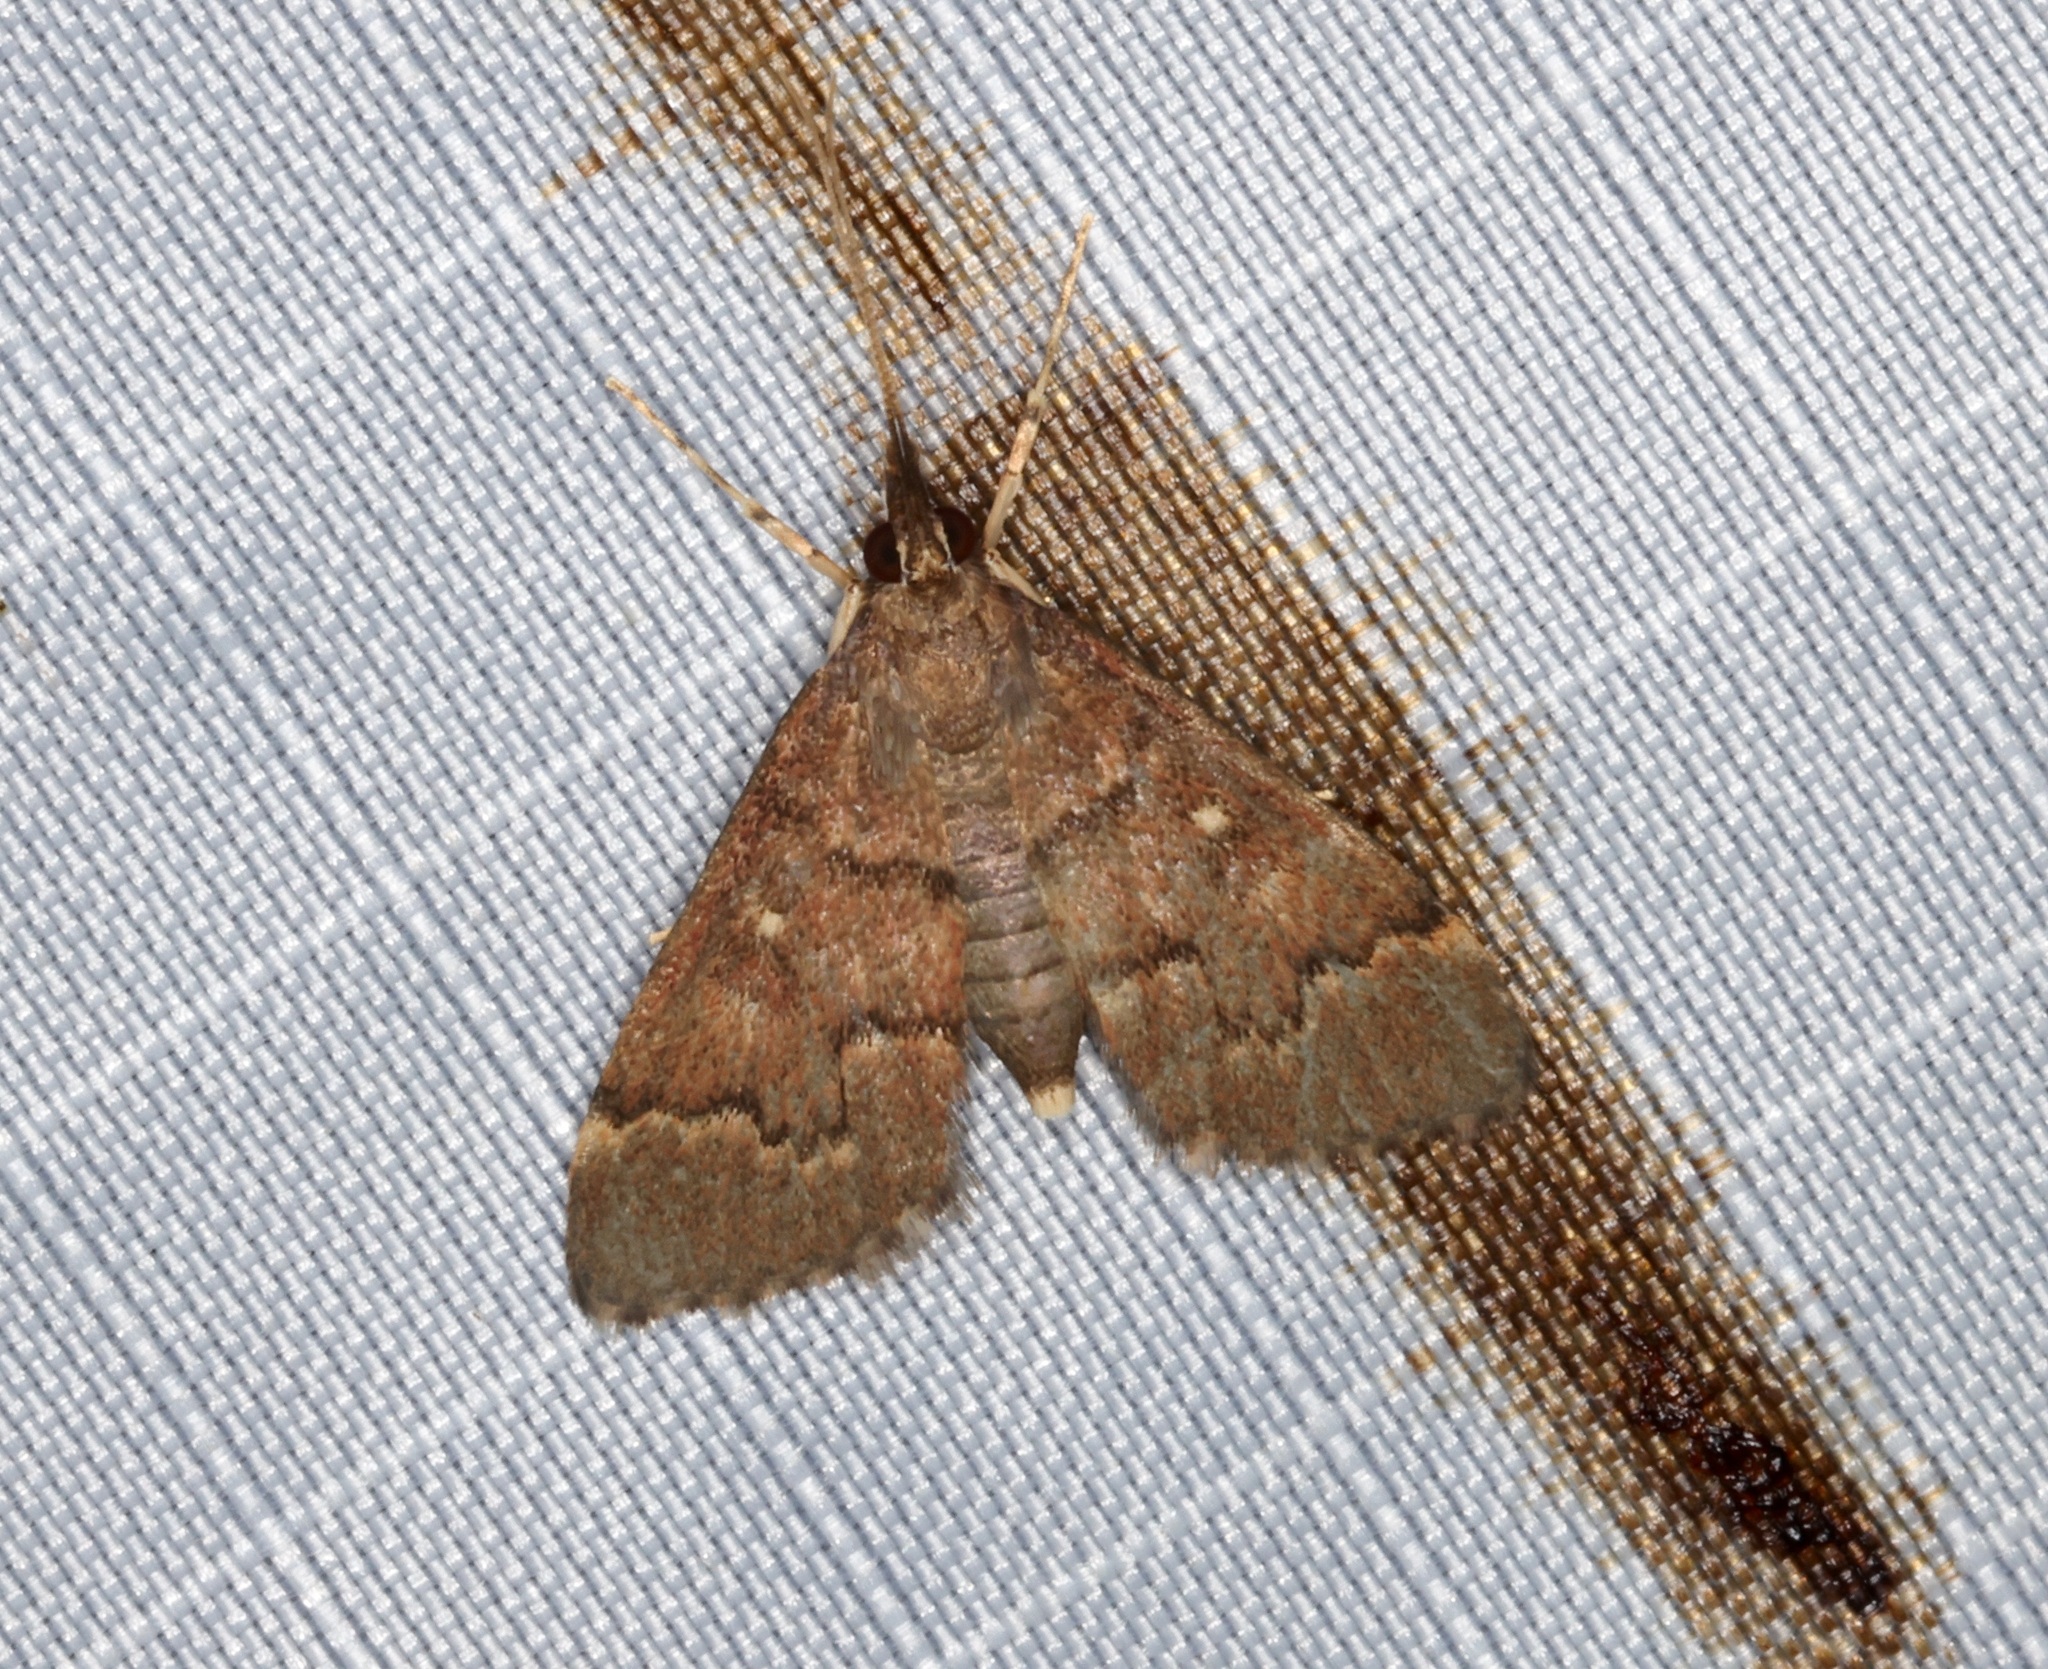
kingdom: Animalia
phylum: Arthropoda
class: Insecta
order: Lepidoptera
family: Crambidae
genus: Camptomastix
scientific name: Camptomastix hisbonalis
